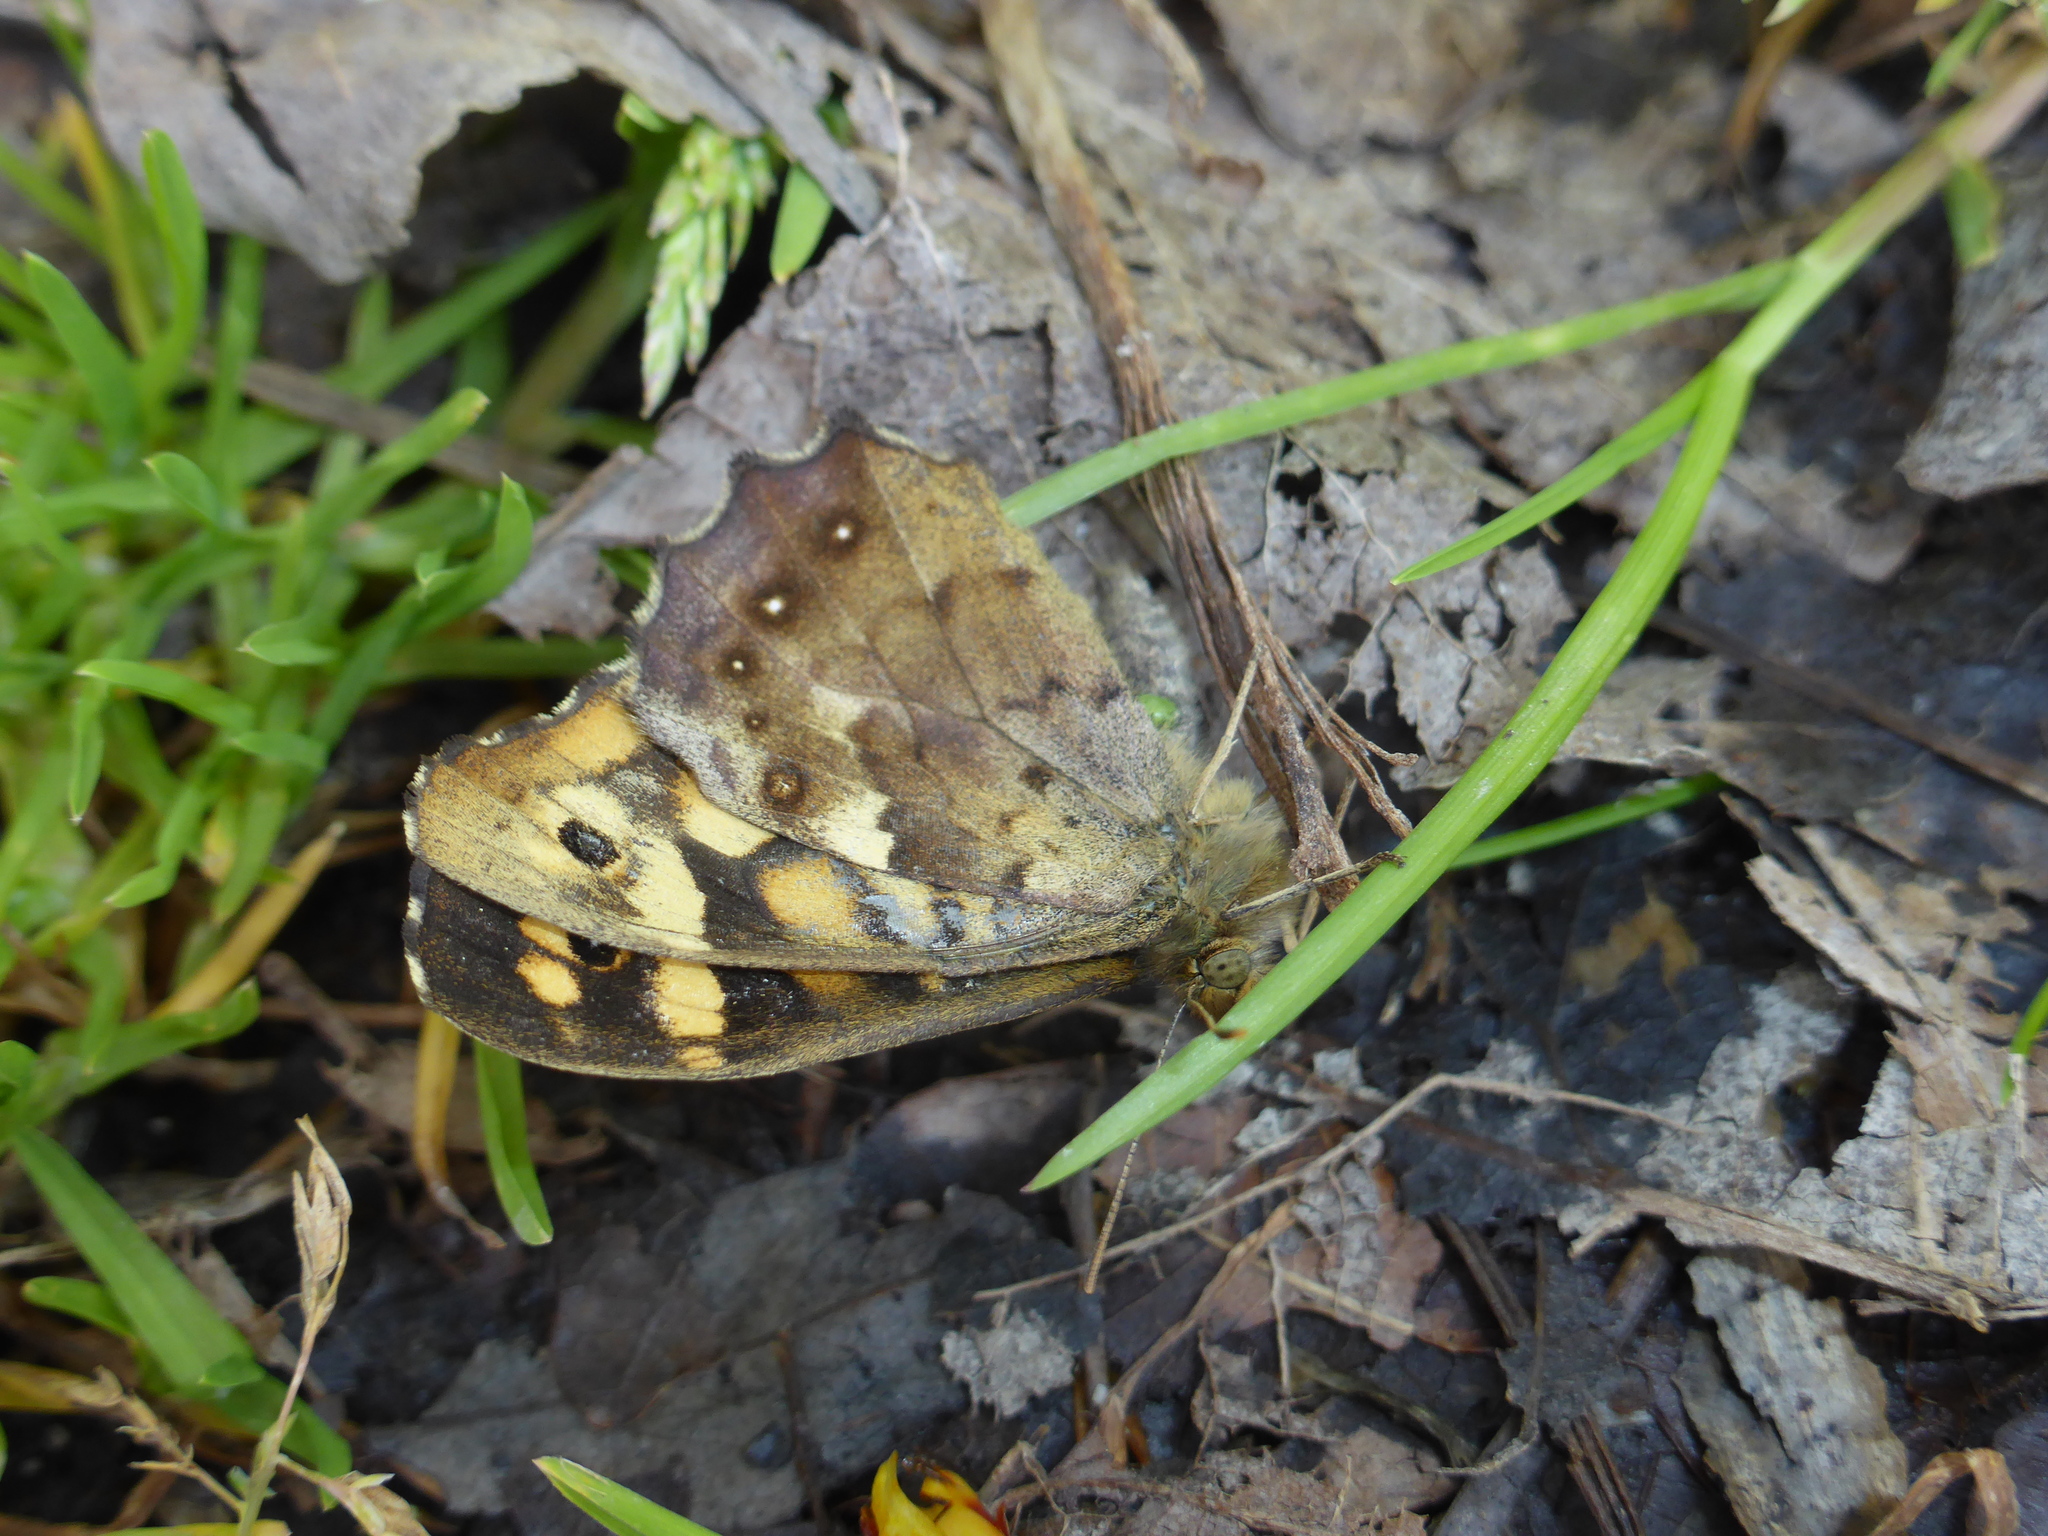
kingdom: Animalia
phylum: Arthropoda
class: Insecta
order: Lepidoptera
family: Nymphalidae
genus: Pararge
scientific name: Pararge aegeria
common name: Speckled wood
